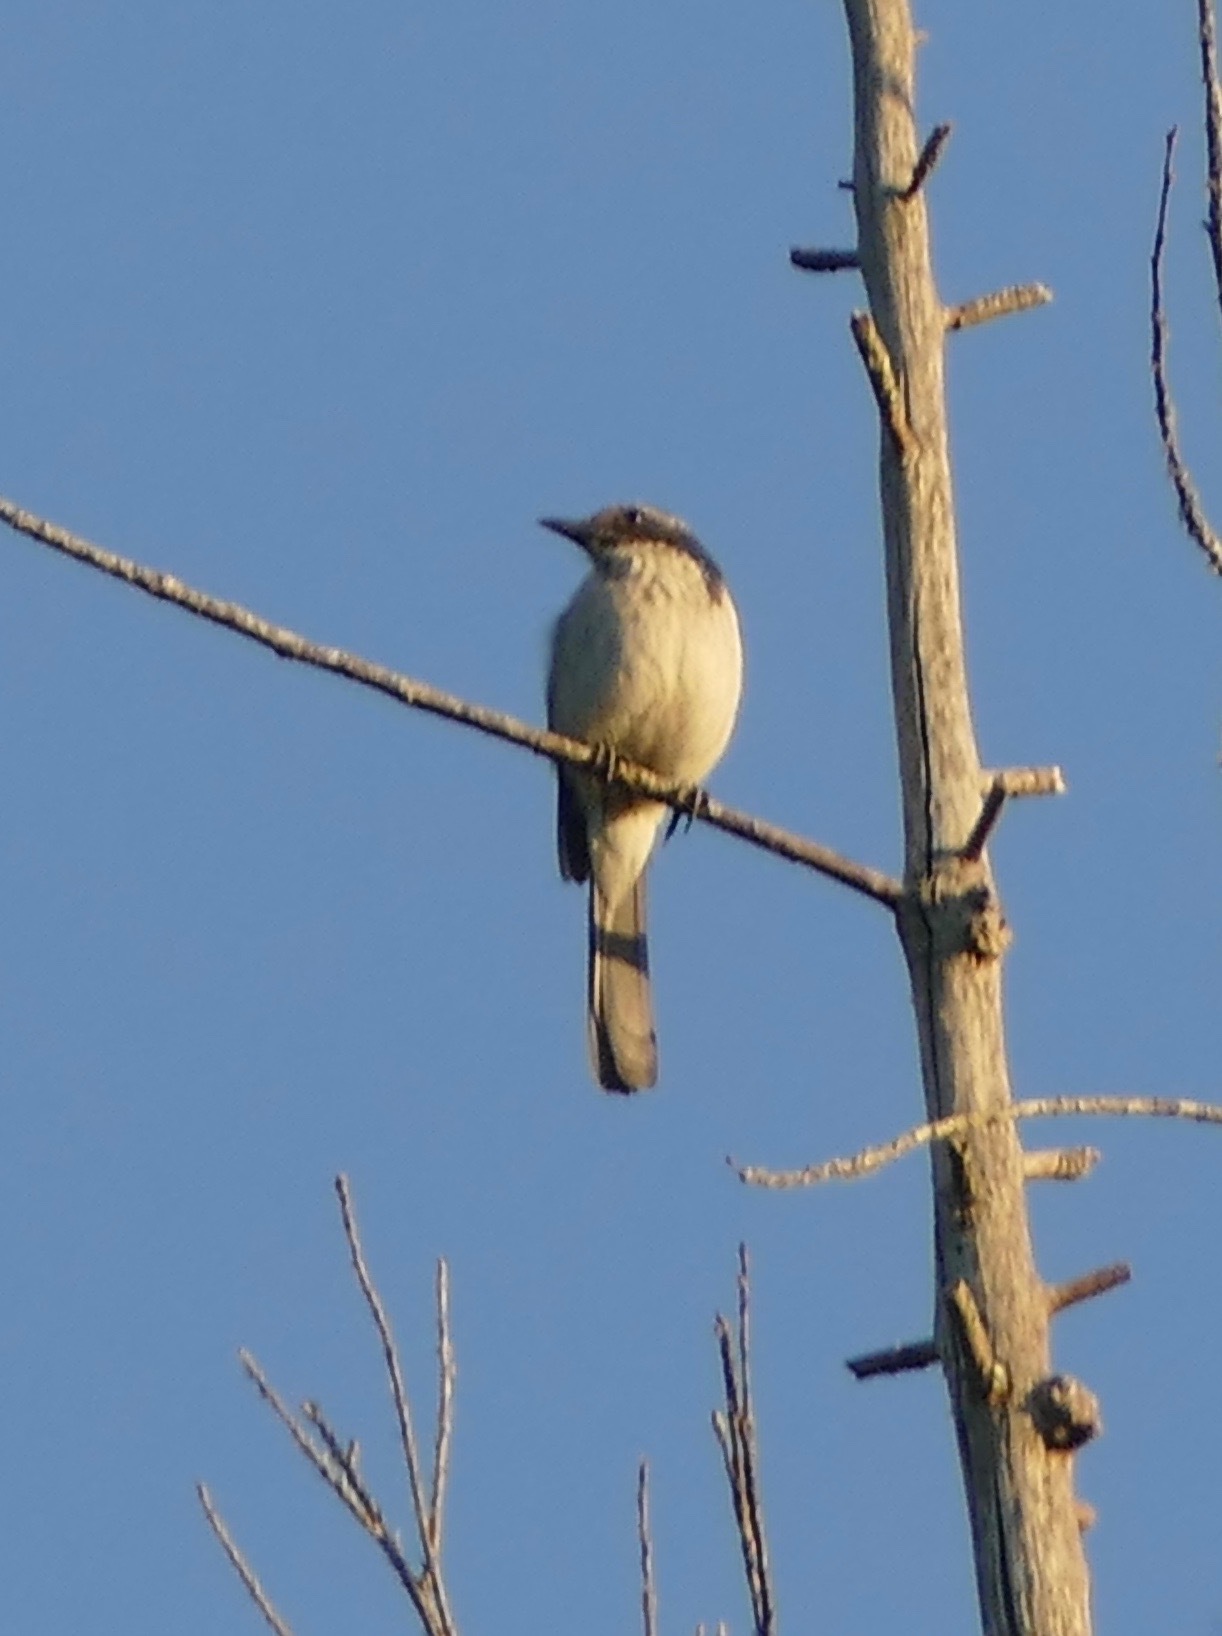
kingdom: Animalia
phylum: Chordata
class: Aves
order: Passeriformes
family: Corvidae
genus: Aphelocoma
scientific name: Aphelocoma californica
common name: California scrub-jay
